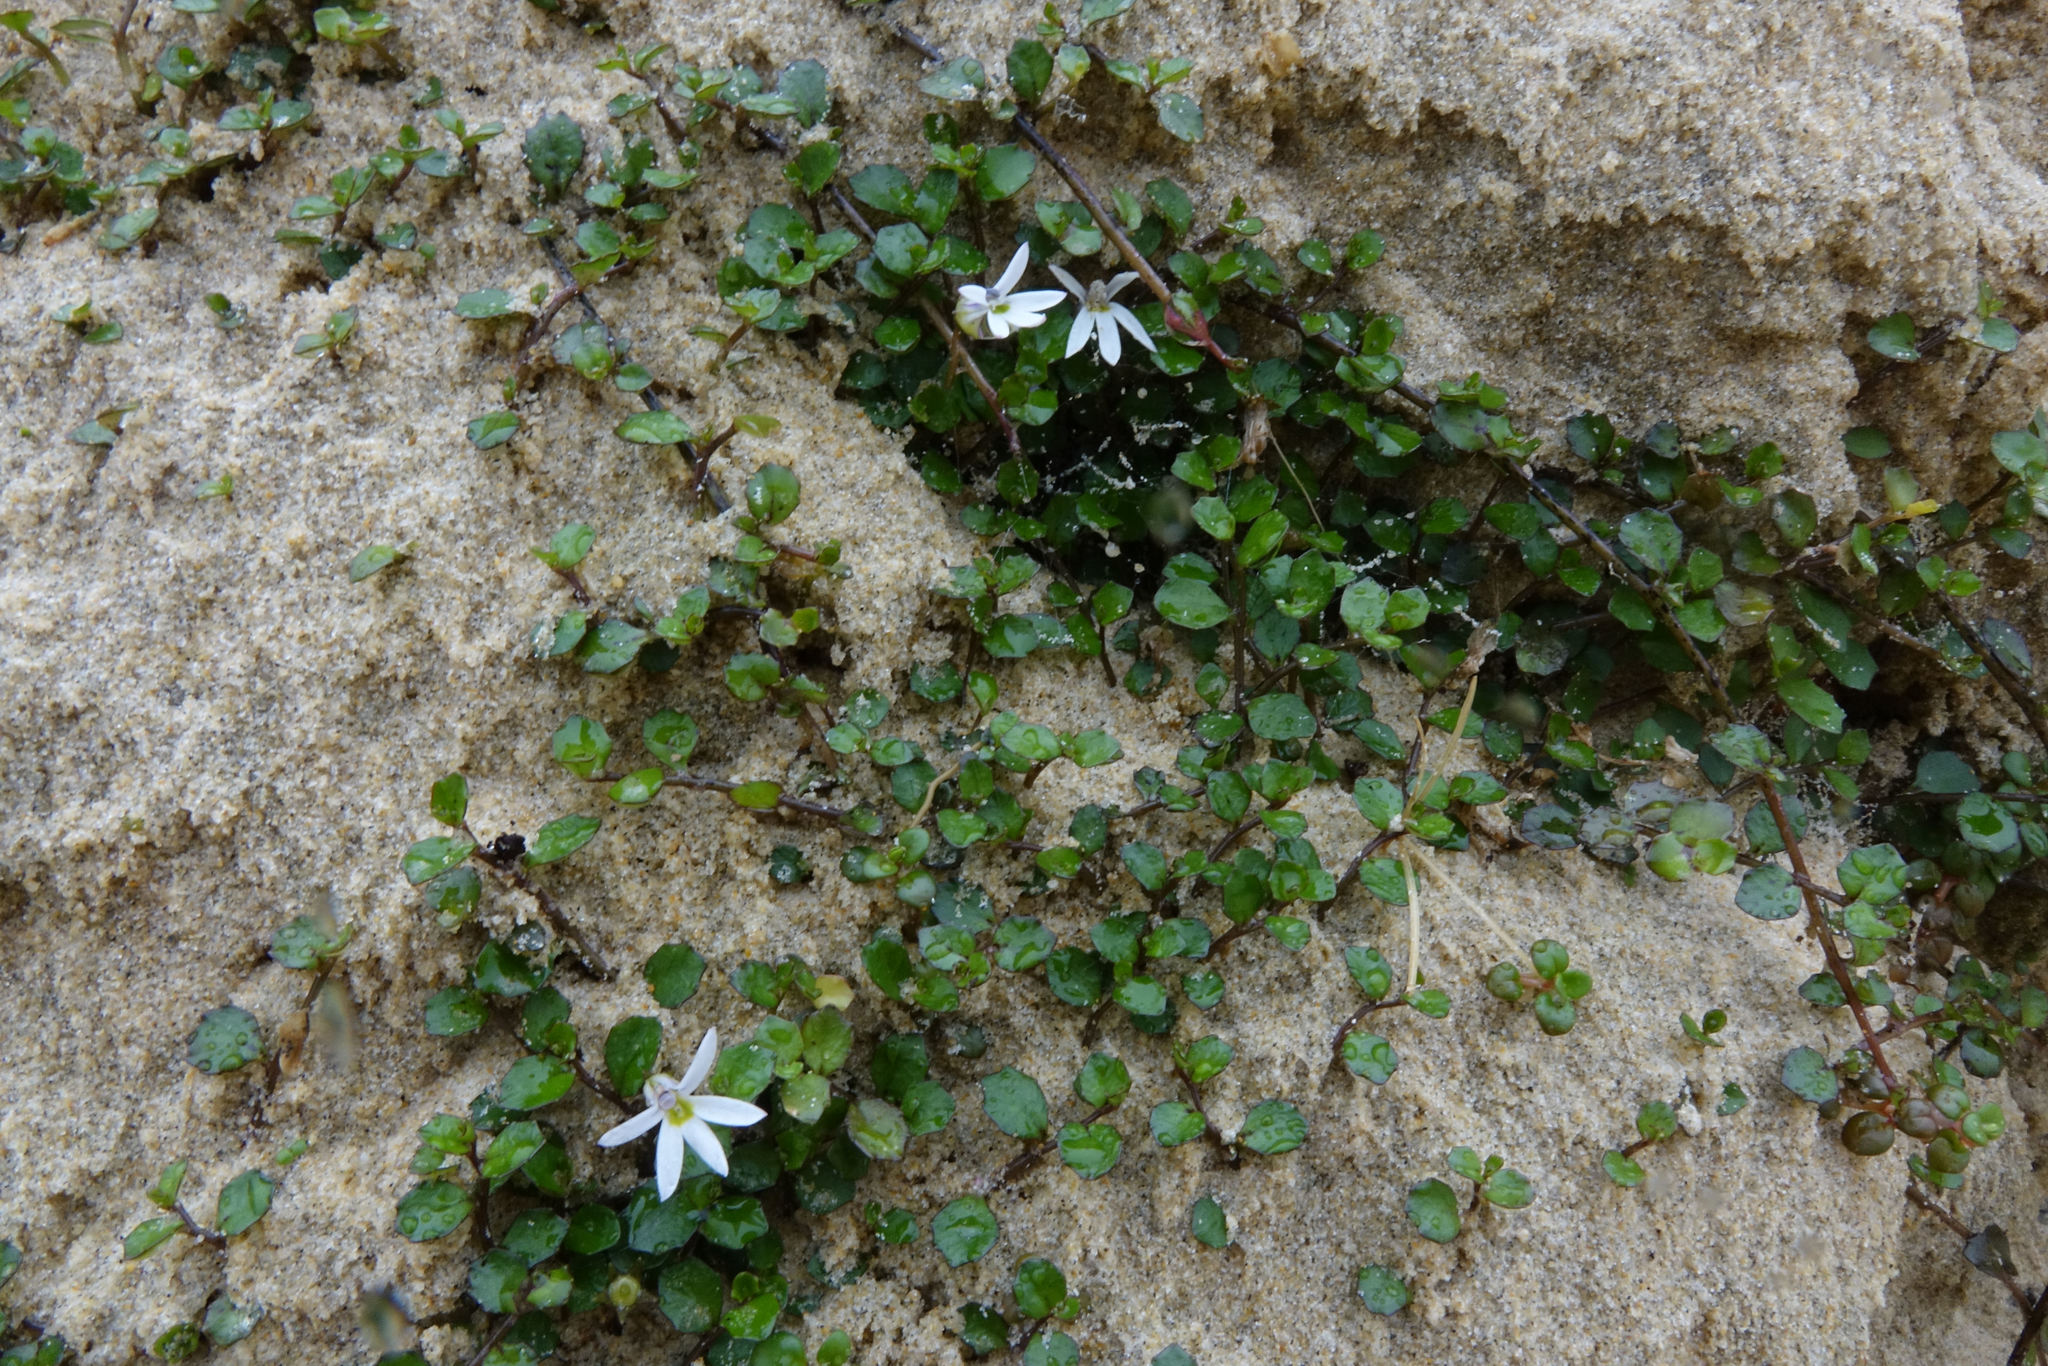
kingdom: Plantae
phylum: Tracheophyta
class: Magnoliopsida
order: Asterales
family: Campanulaceae
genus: Lobelia
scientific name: Lobelia angulata
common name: Lawn lobelia
